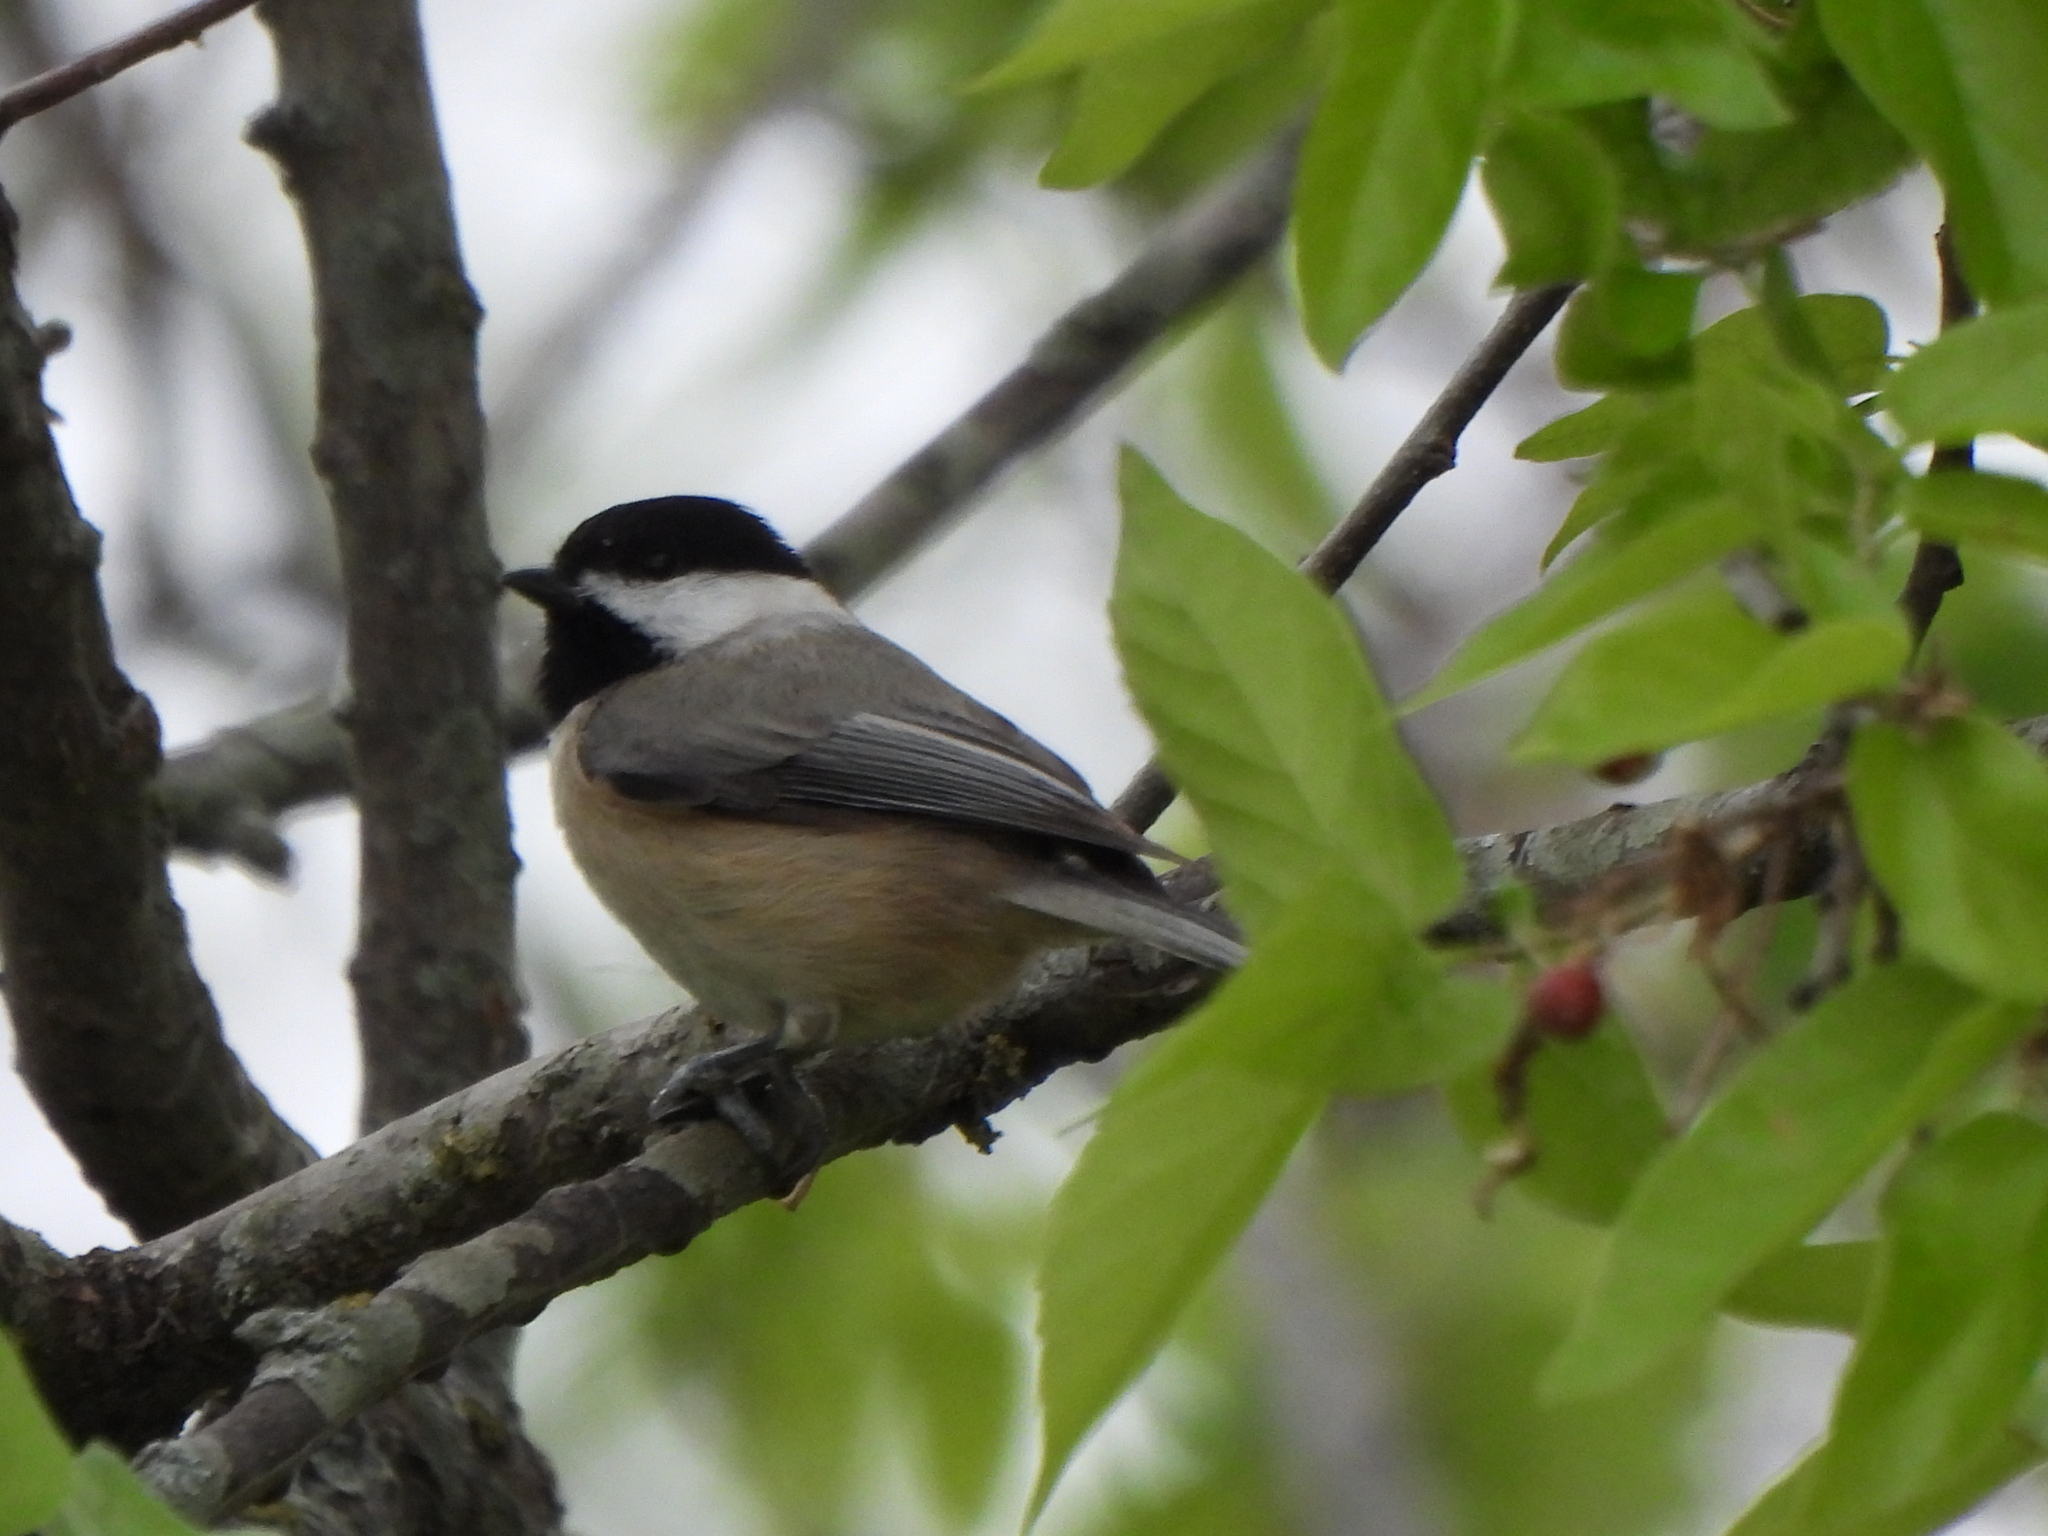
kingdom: Animalia
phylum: Chordata
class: Aves
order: Passeriformes
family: Paridae
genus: Poecile
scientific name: Poecile carolinensis
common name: Carolina chickadee
